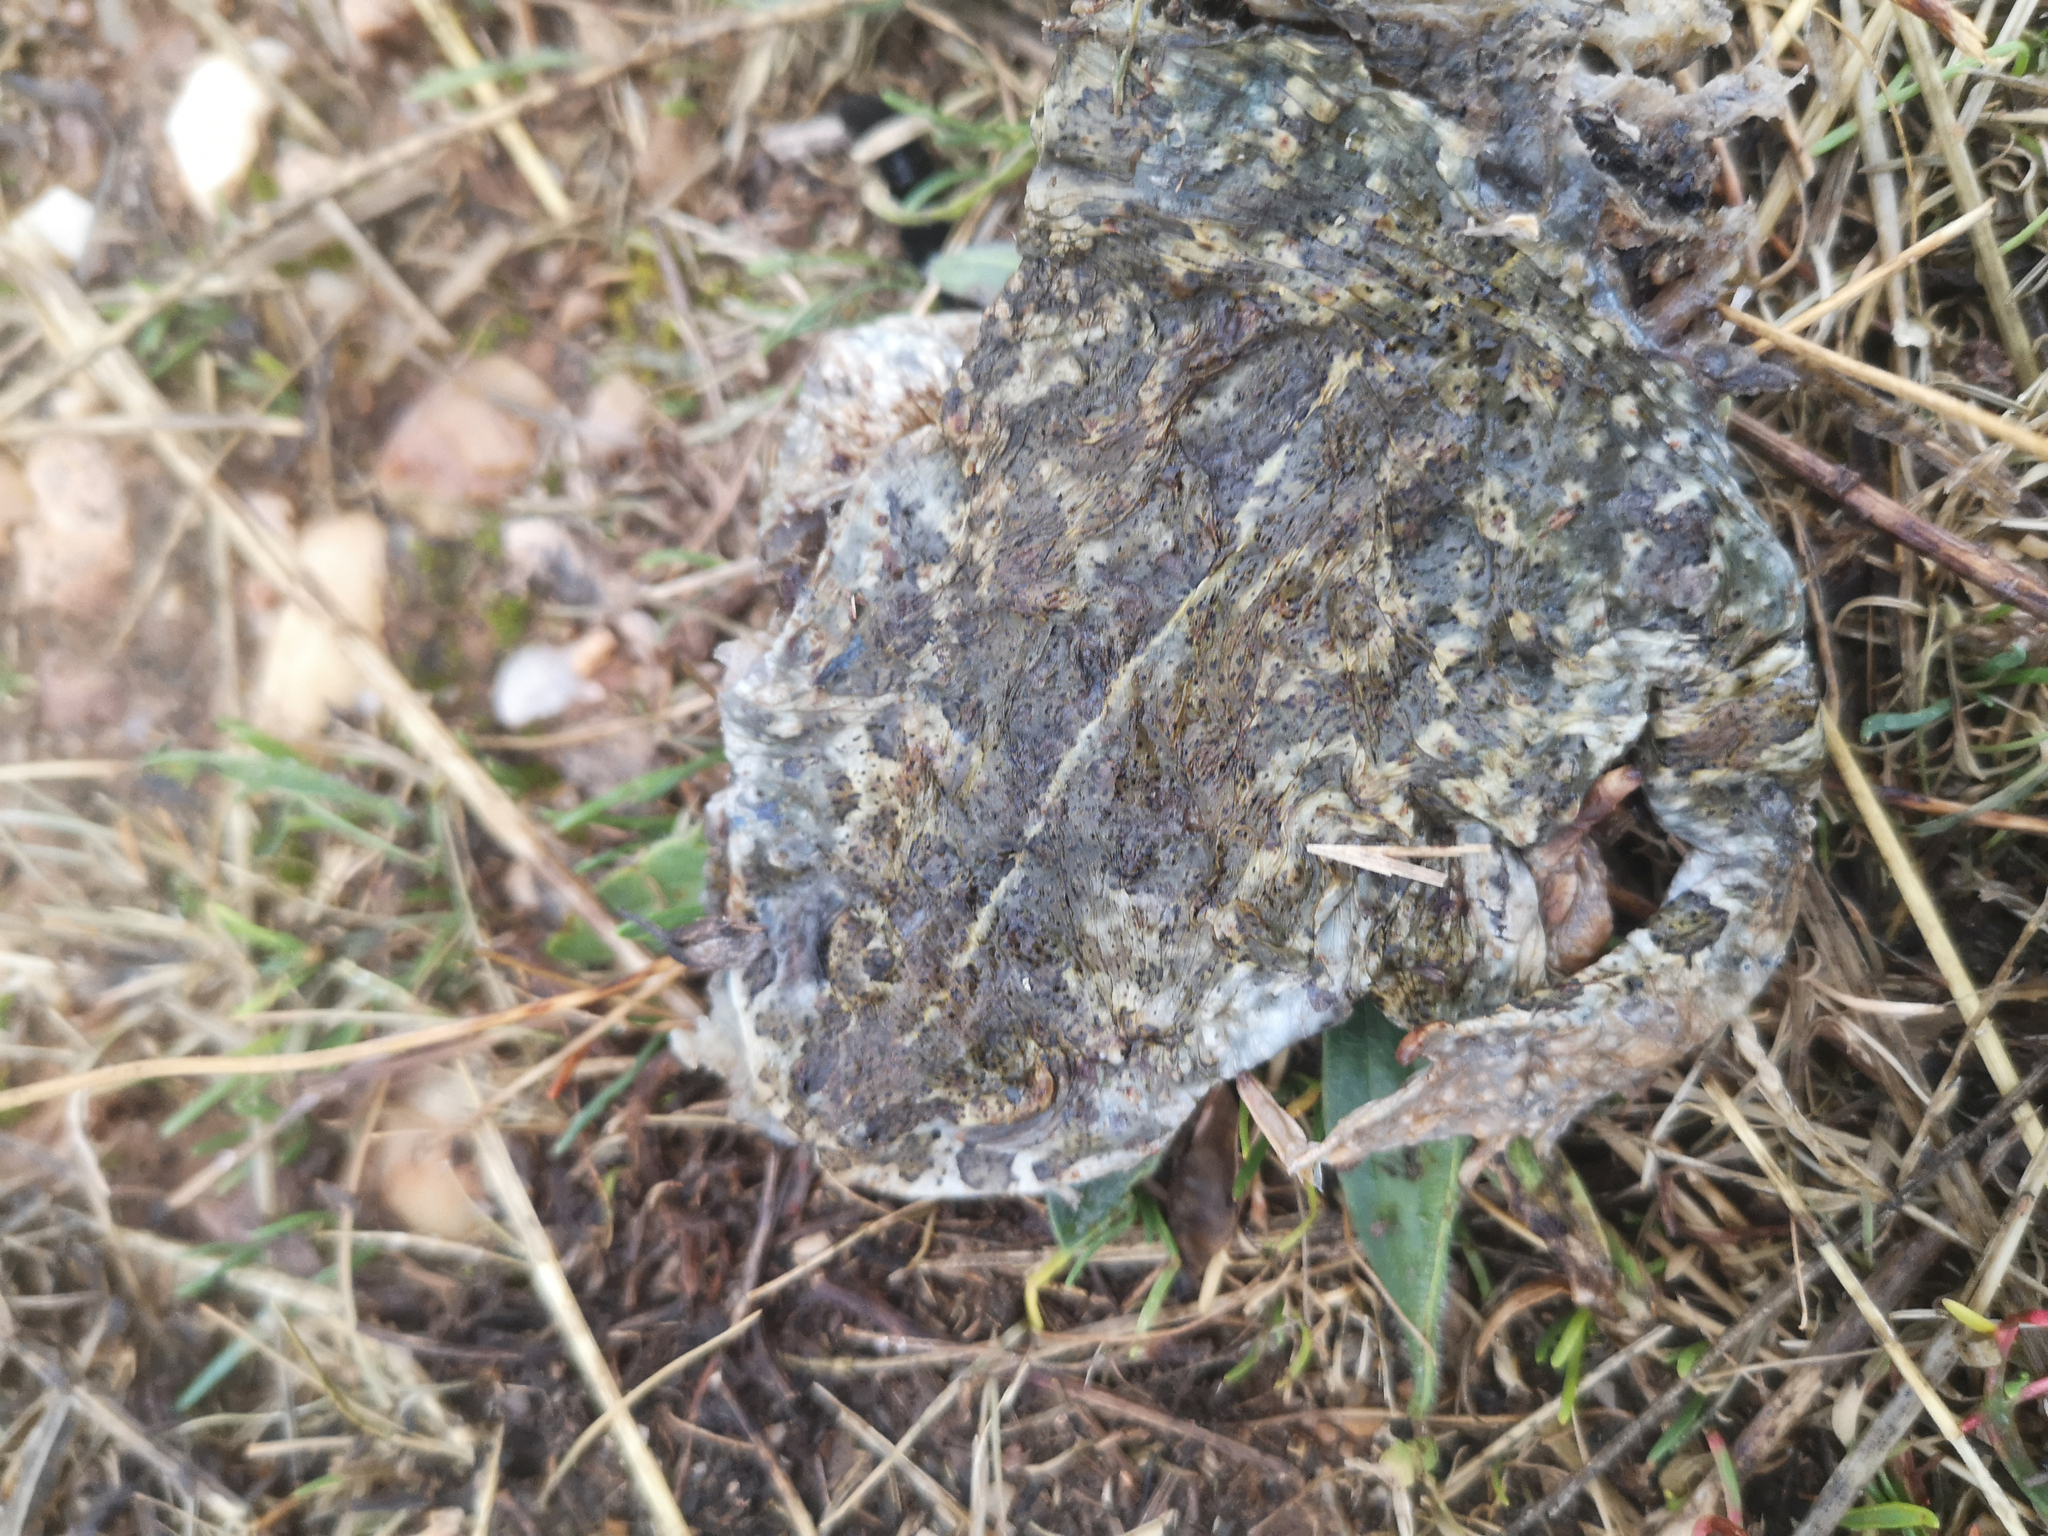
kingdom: Animalia
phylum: Chordata
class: Amphibia
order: Anura
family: Bufonidae
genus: Epidalea
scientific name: Epidalea calamita
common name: Natterjack toad
